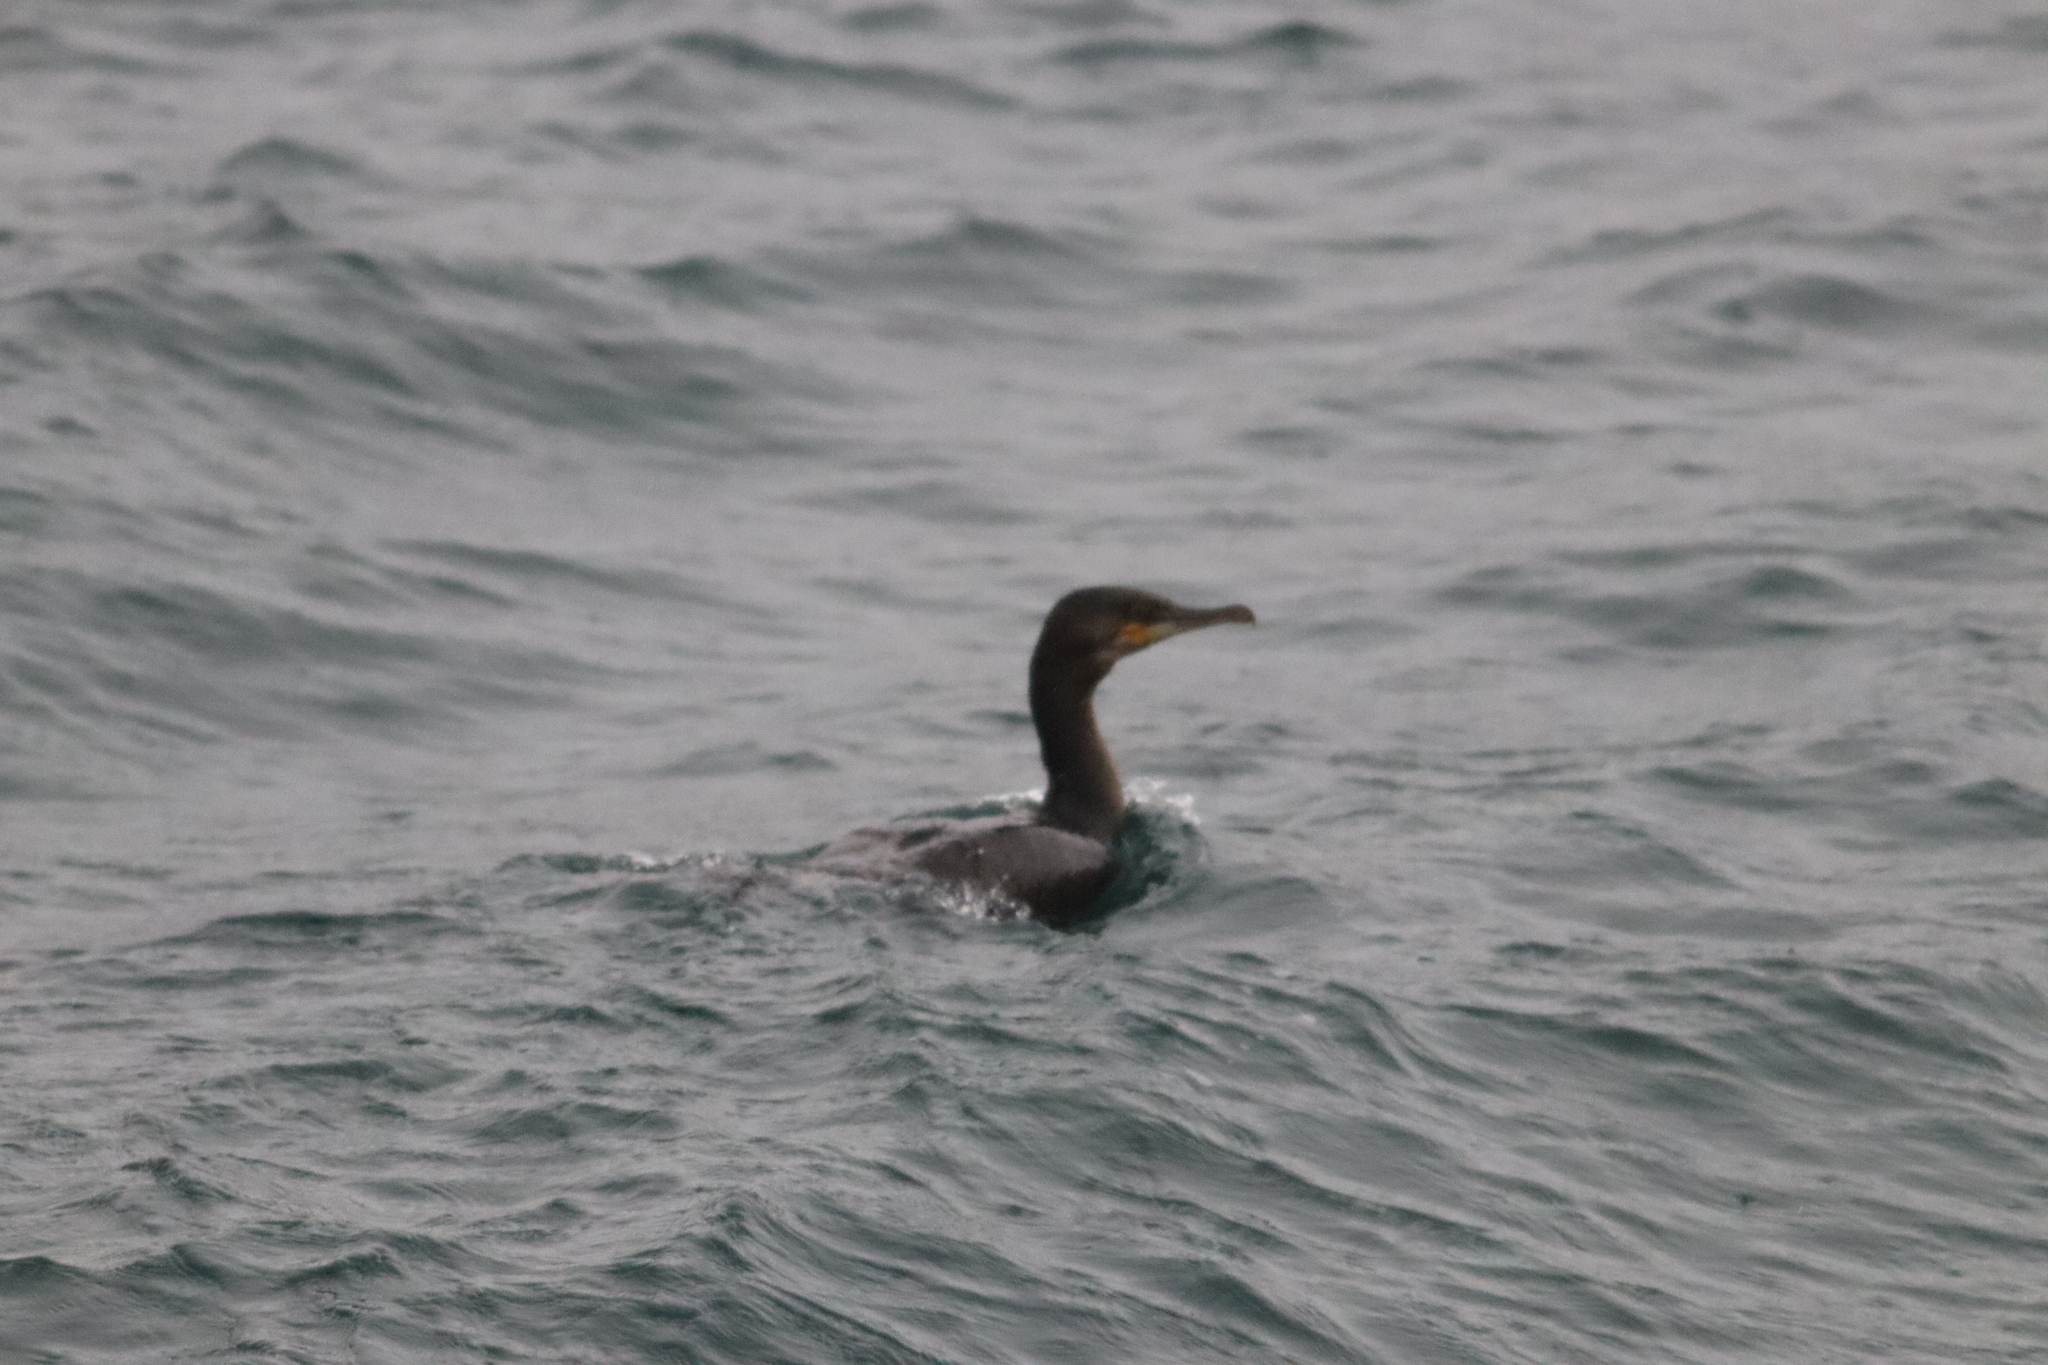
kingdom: Animalia
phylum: Chordata
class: Aves
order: Suliformes
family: Phalacrocoracidae
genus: Phalacrocorax
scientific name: Phalacrocorax carbo
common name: Great cormorant
